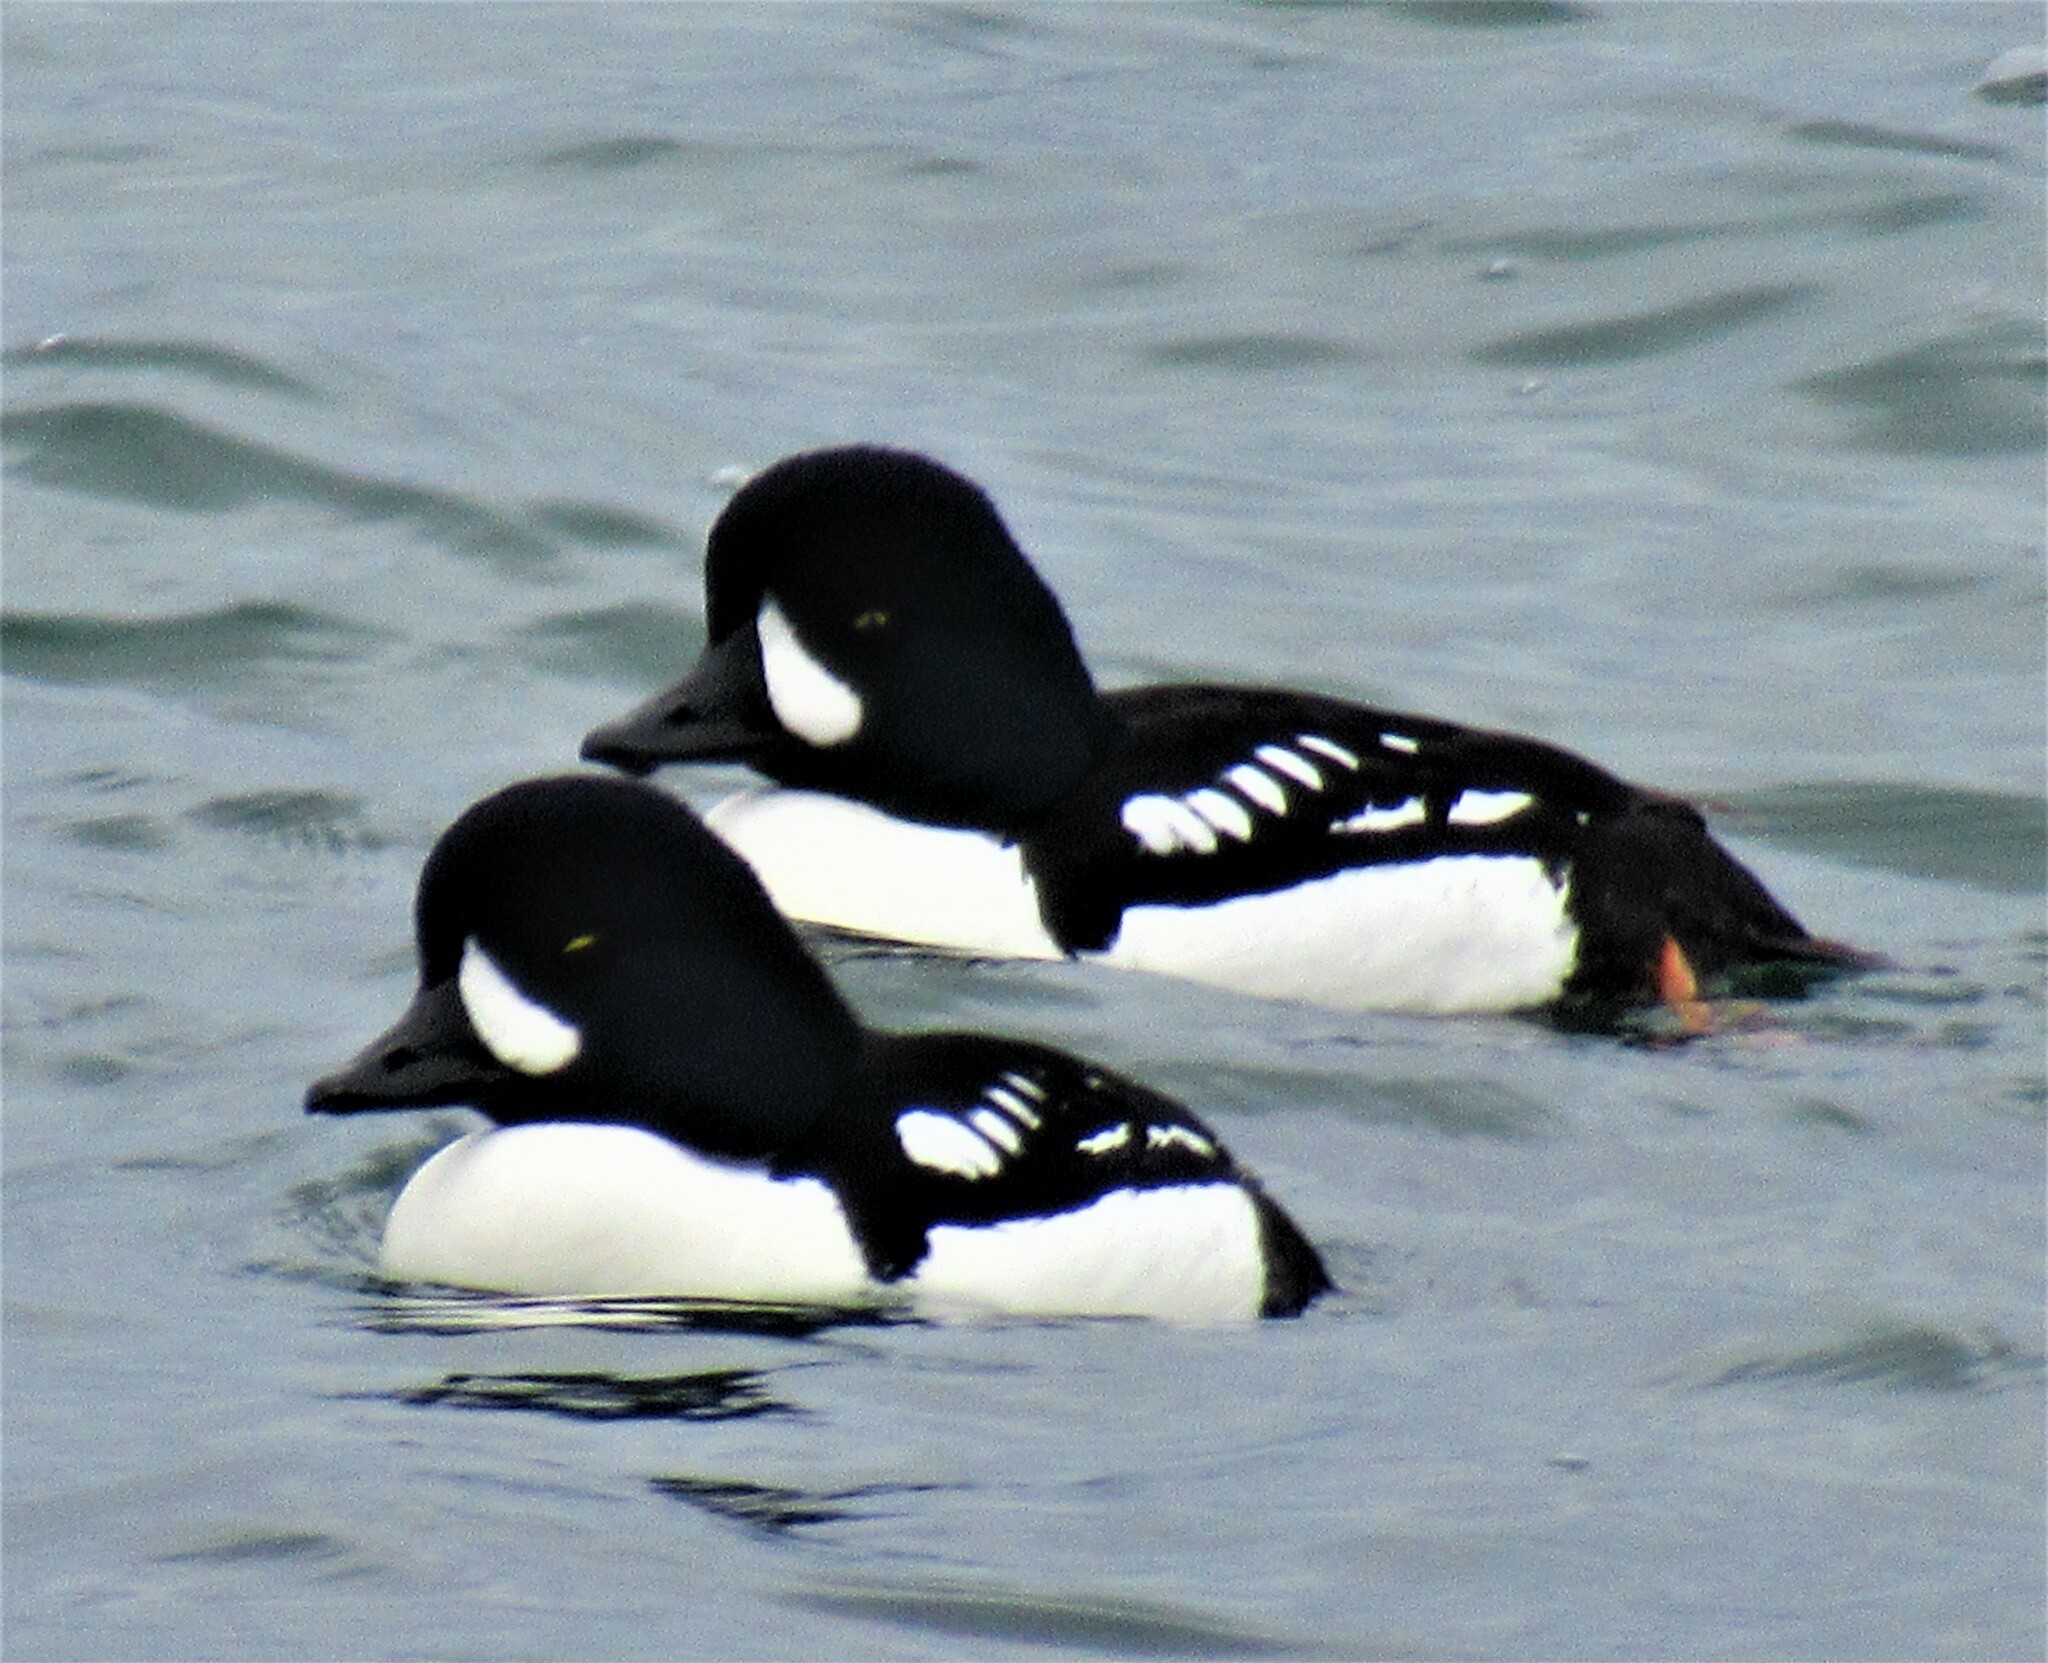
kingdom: Animalia
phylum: Chordata
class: Aves
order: Anseriformes
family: Anatidae
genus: Bucephala
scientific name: Bucephala islandica
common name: Barrow's goldeneye
